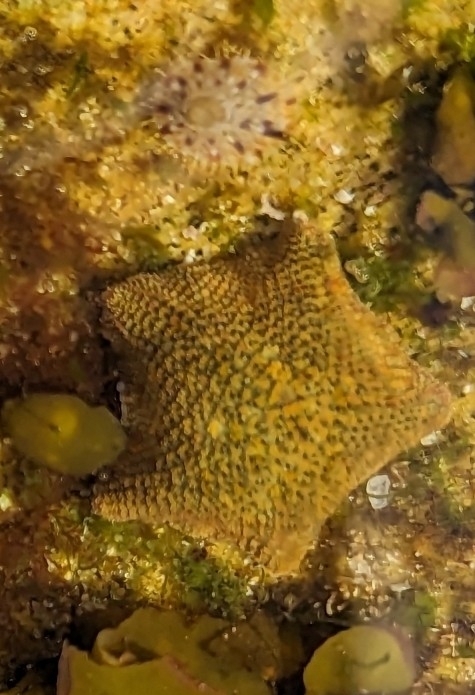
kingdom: Animalia
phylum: Echinodermata
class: Asteroidea
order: Valvatida
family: Asterinidae
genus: Parvulastra
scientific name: Parvulastra exigua
